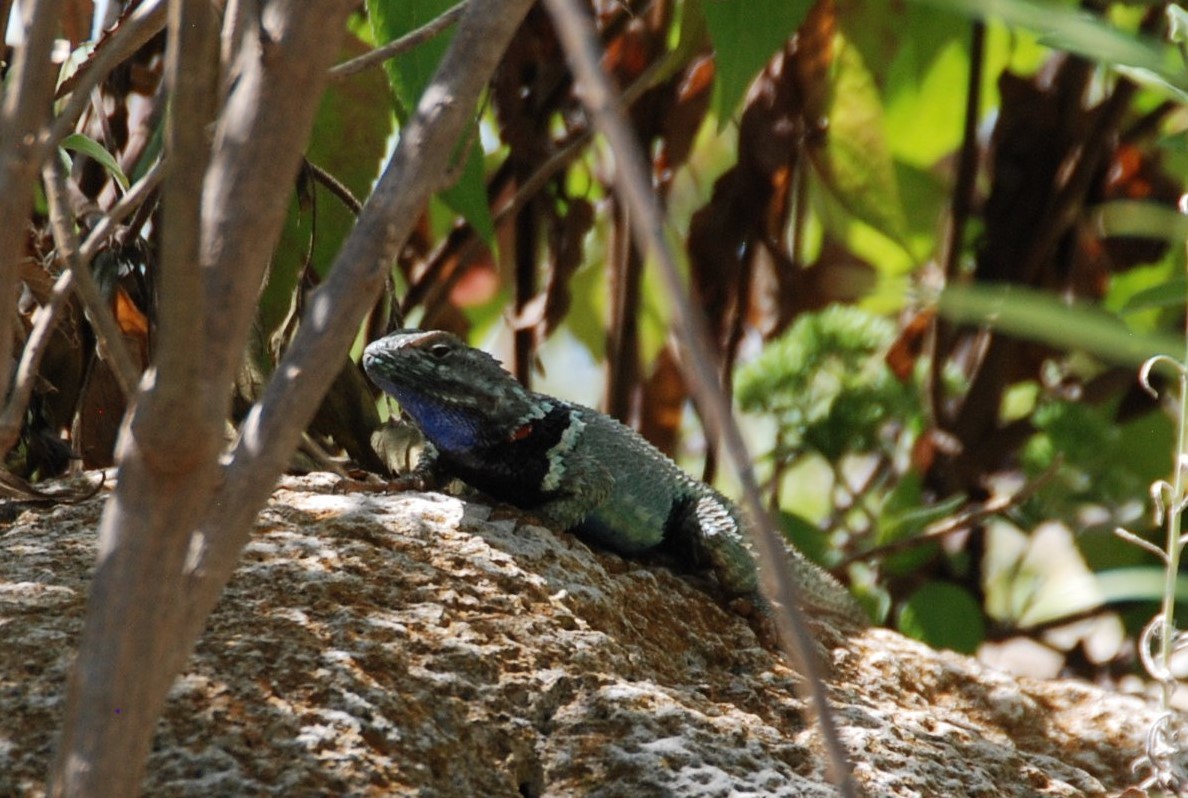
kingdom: Animalia
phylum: Chordata
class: Squamata
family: Phrynosomatidae
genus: Sceloporus
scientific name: Sceloporus torquatus
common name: Central plateau torquate lizard [melanogaster]
